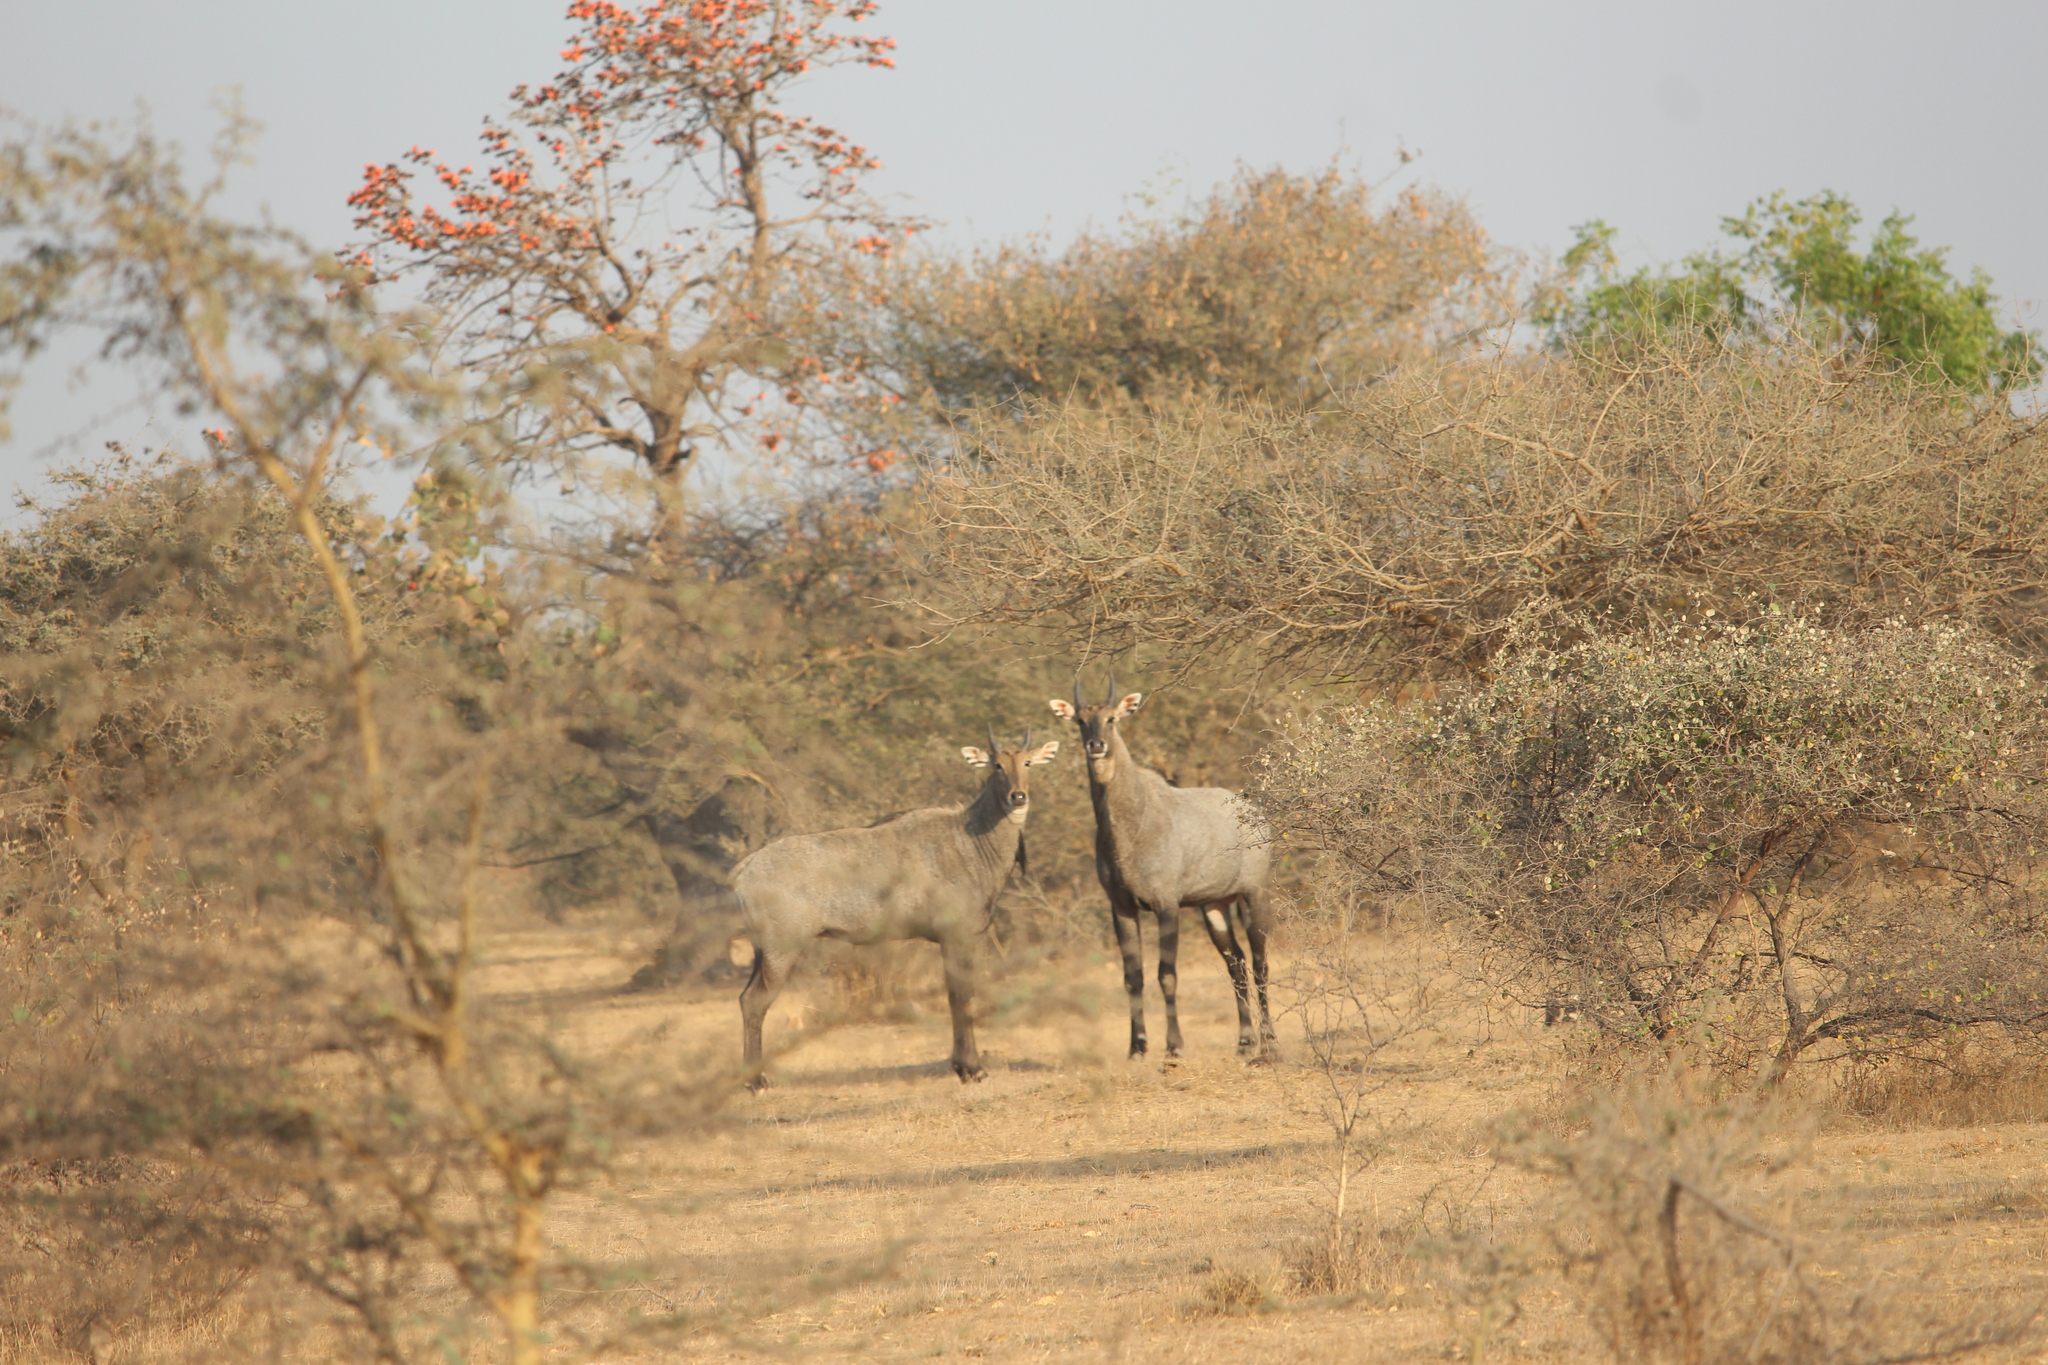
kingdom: Animalia
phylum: Chordata
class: Mammalia
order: Artiodactyla
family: Bovidae
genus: Boselaphus
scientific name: Boselaphus tragocamelus
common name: Nilgai
